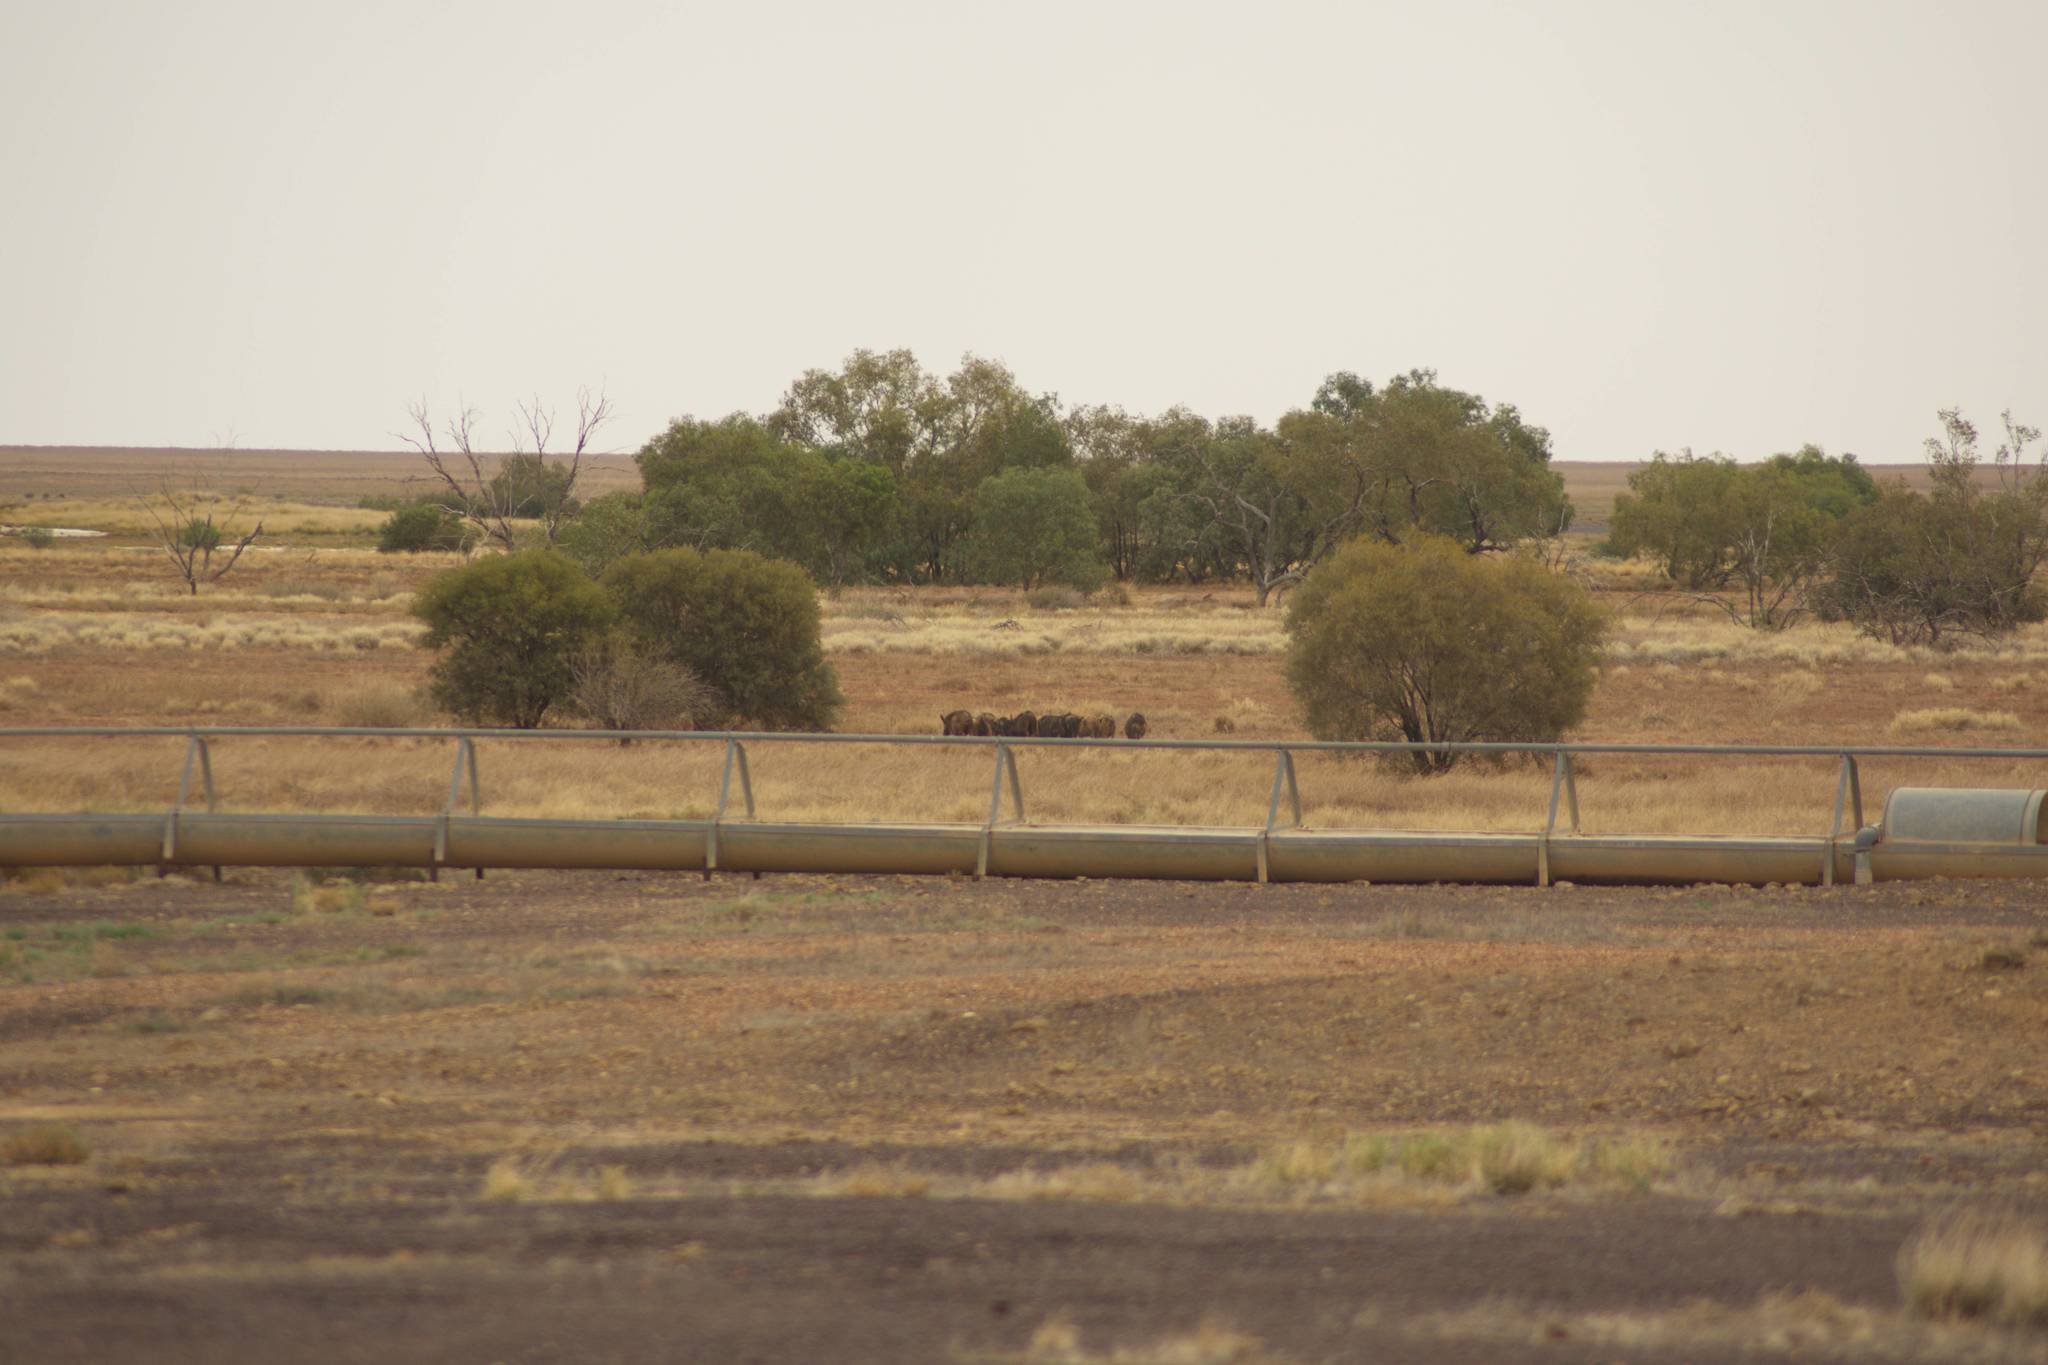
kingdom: Animalia
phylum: Chordata
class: Mammalia
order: Artiodactyla
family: Suidae
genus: Sus
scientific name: Sus scrofa
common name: Wild boar
